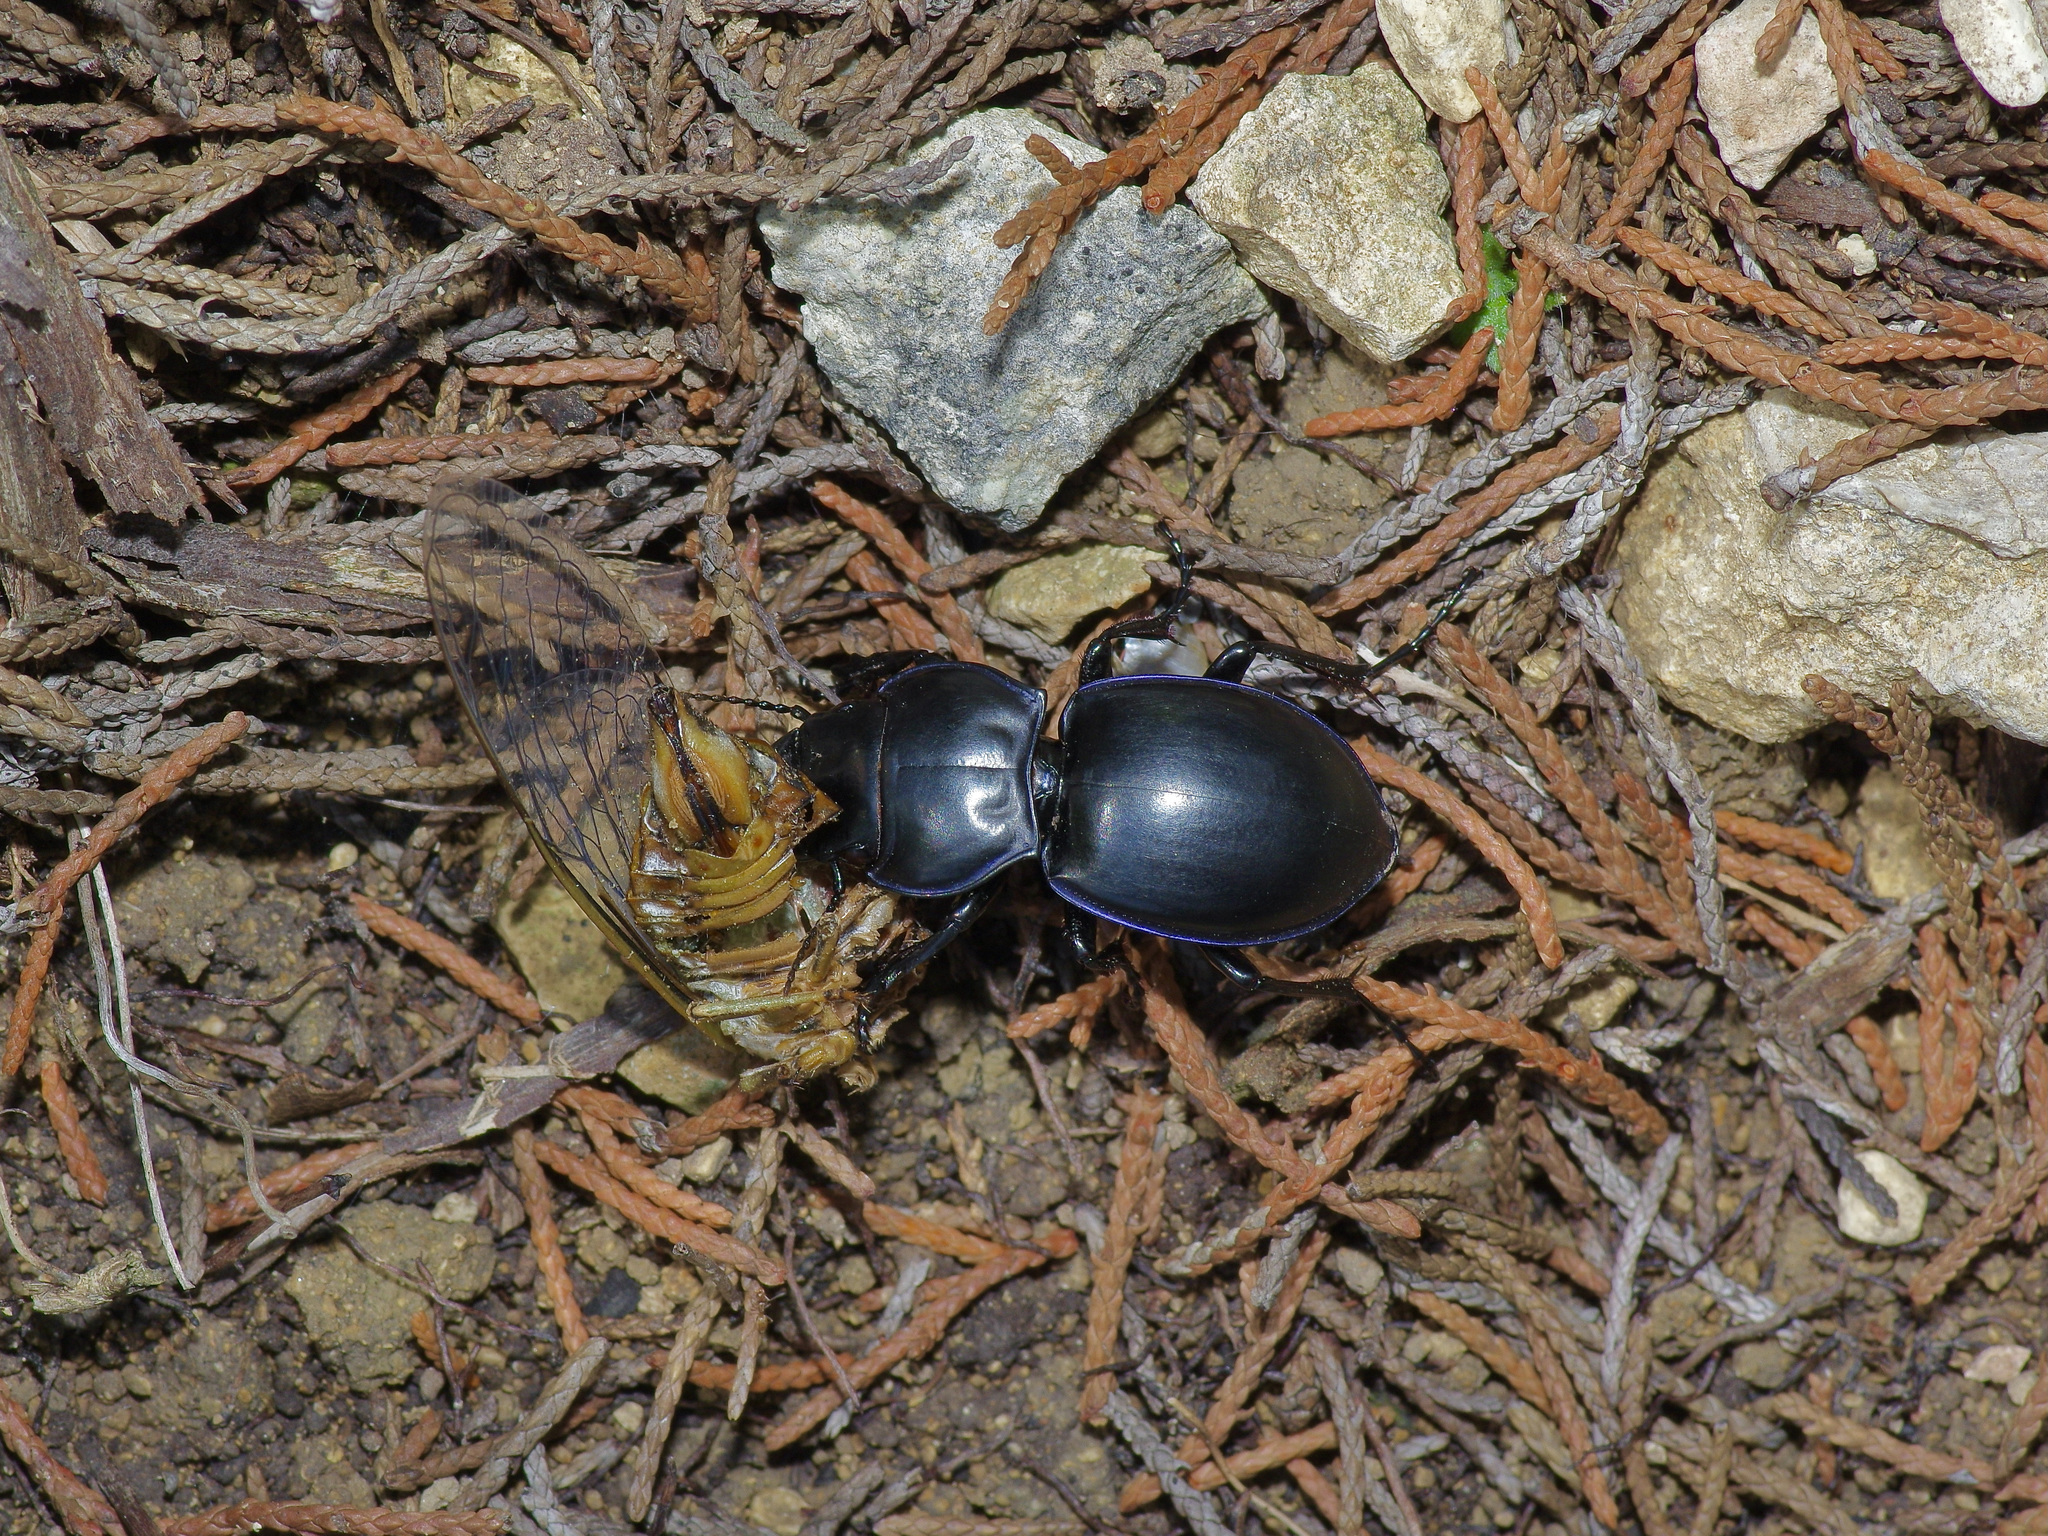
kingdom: Animalia
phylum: Arthropoda
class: Insecta
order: Coleoptera
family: Carabidae
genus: Pasimachus
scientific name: Pasimachus californicus
